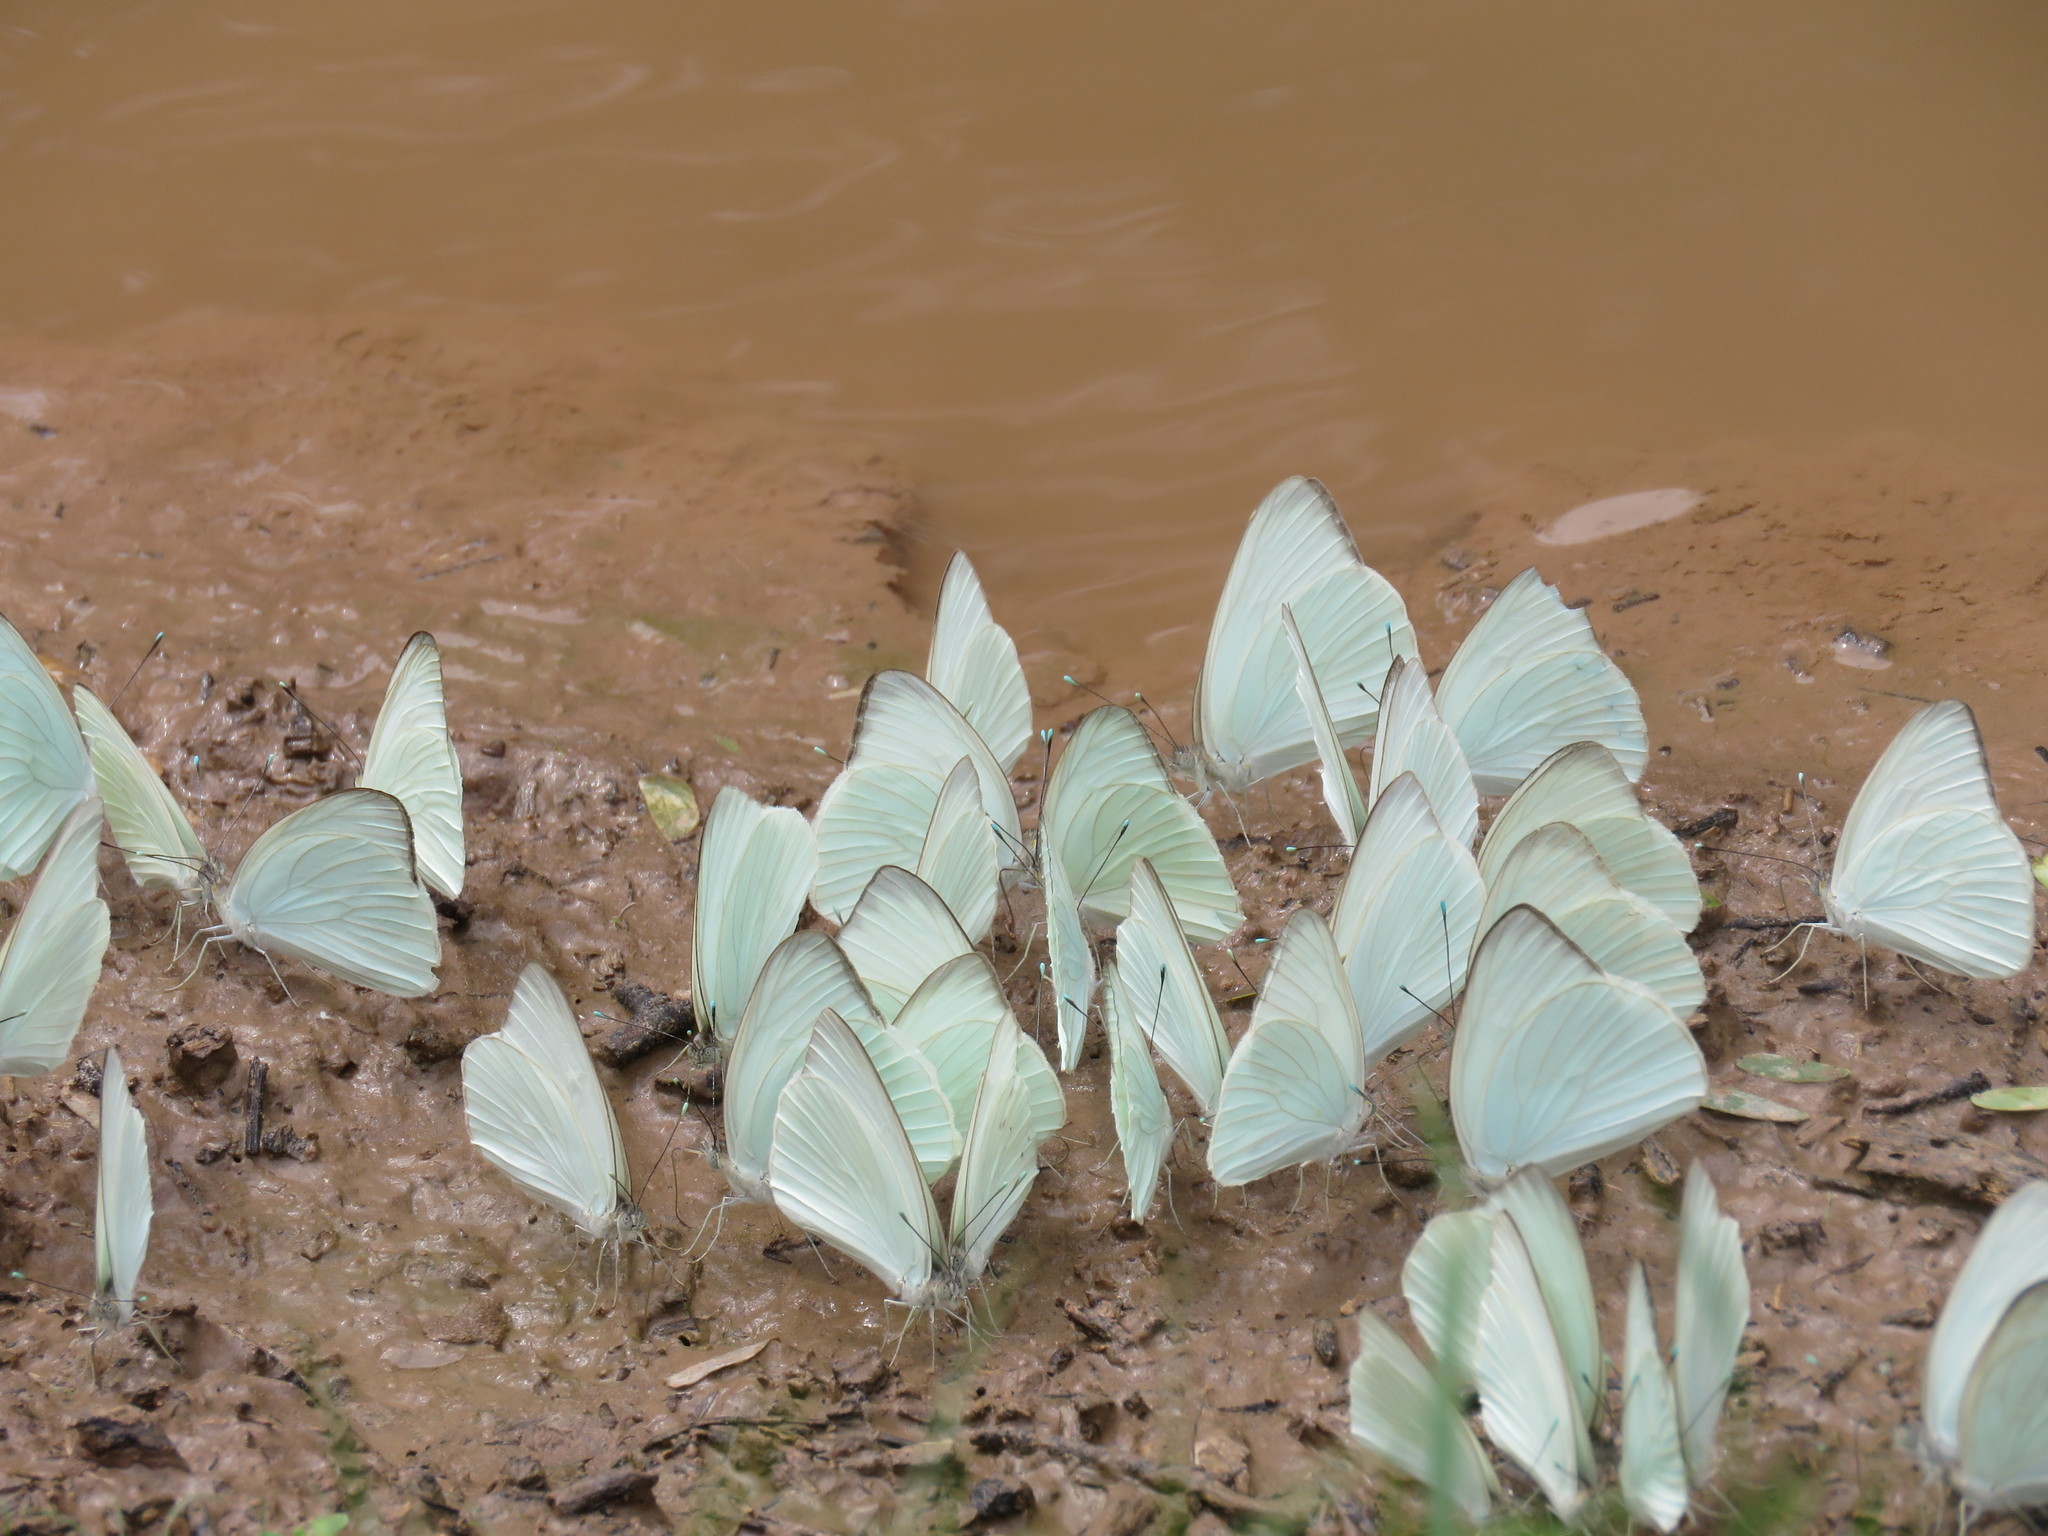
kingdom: Animalia
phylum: Arthropoda
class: Insecta
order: Lepidoptera
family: Pieridae
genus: Ascia
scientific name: Ascia monuste
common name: Great southern white
